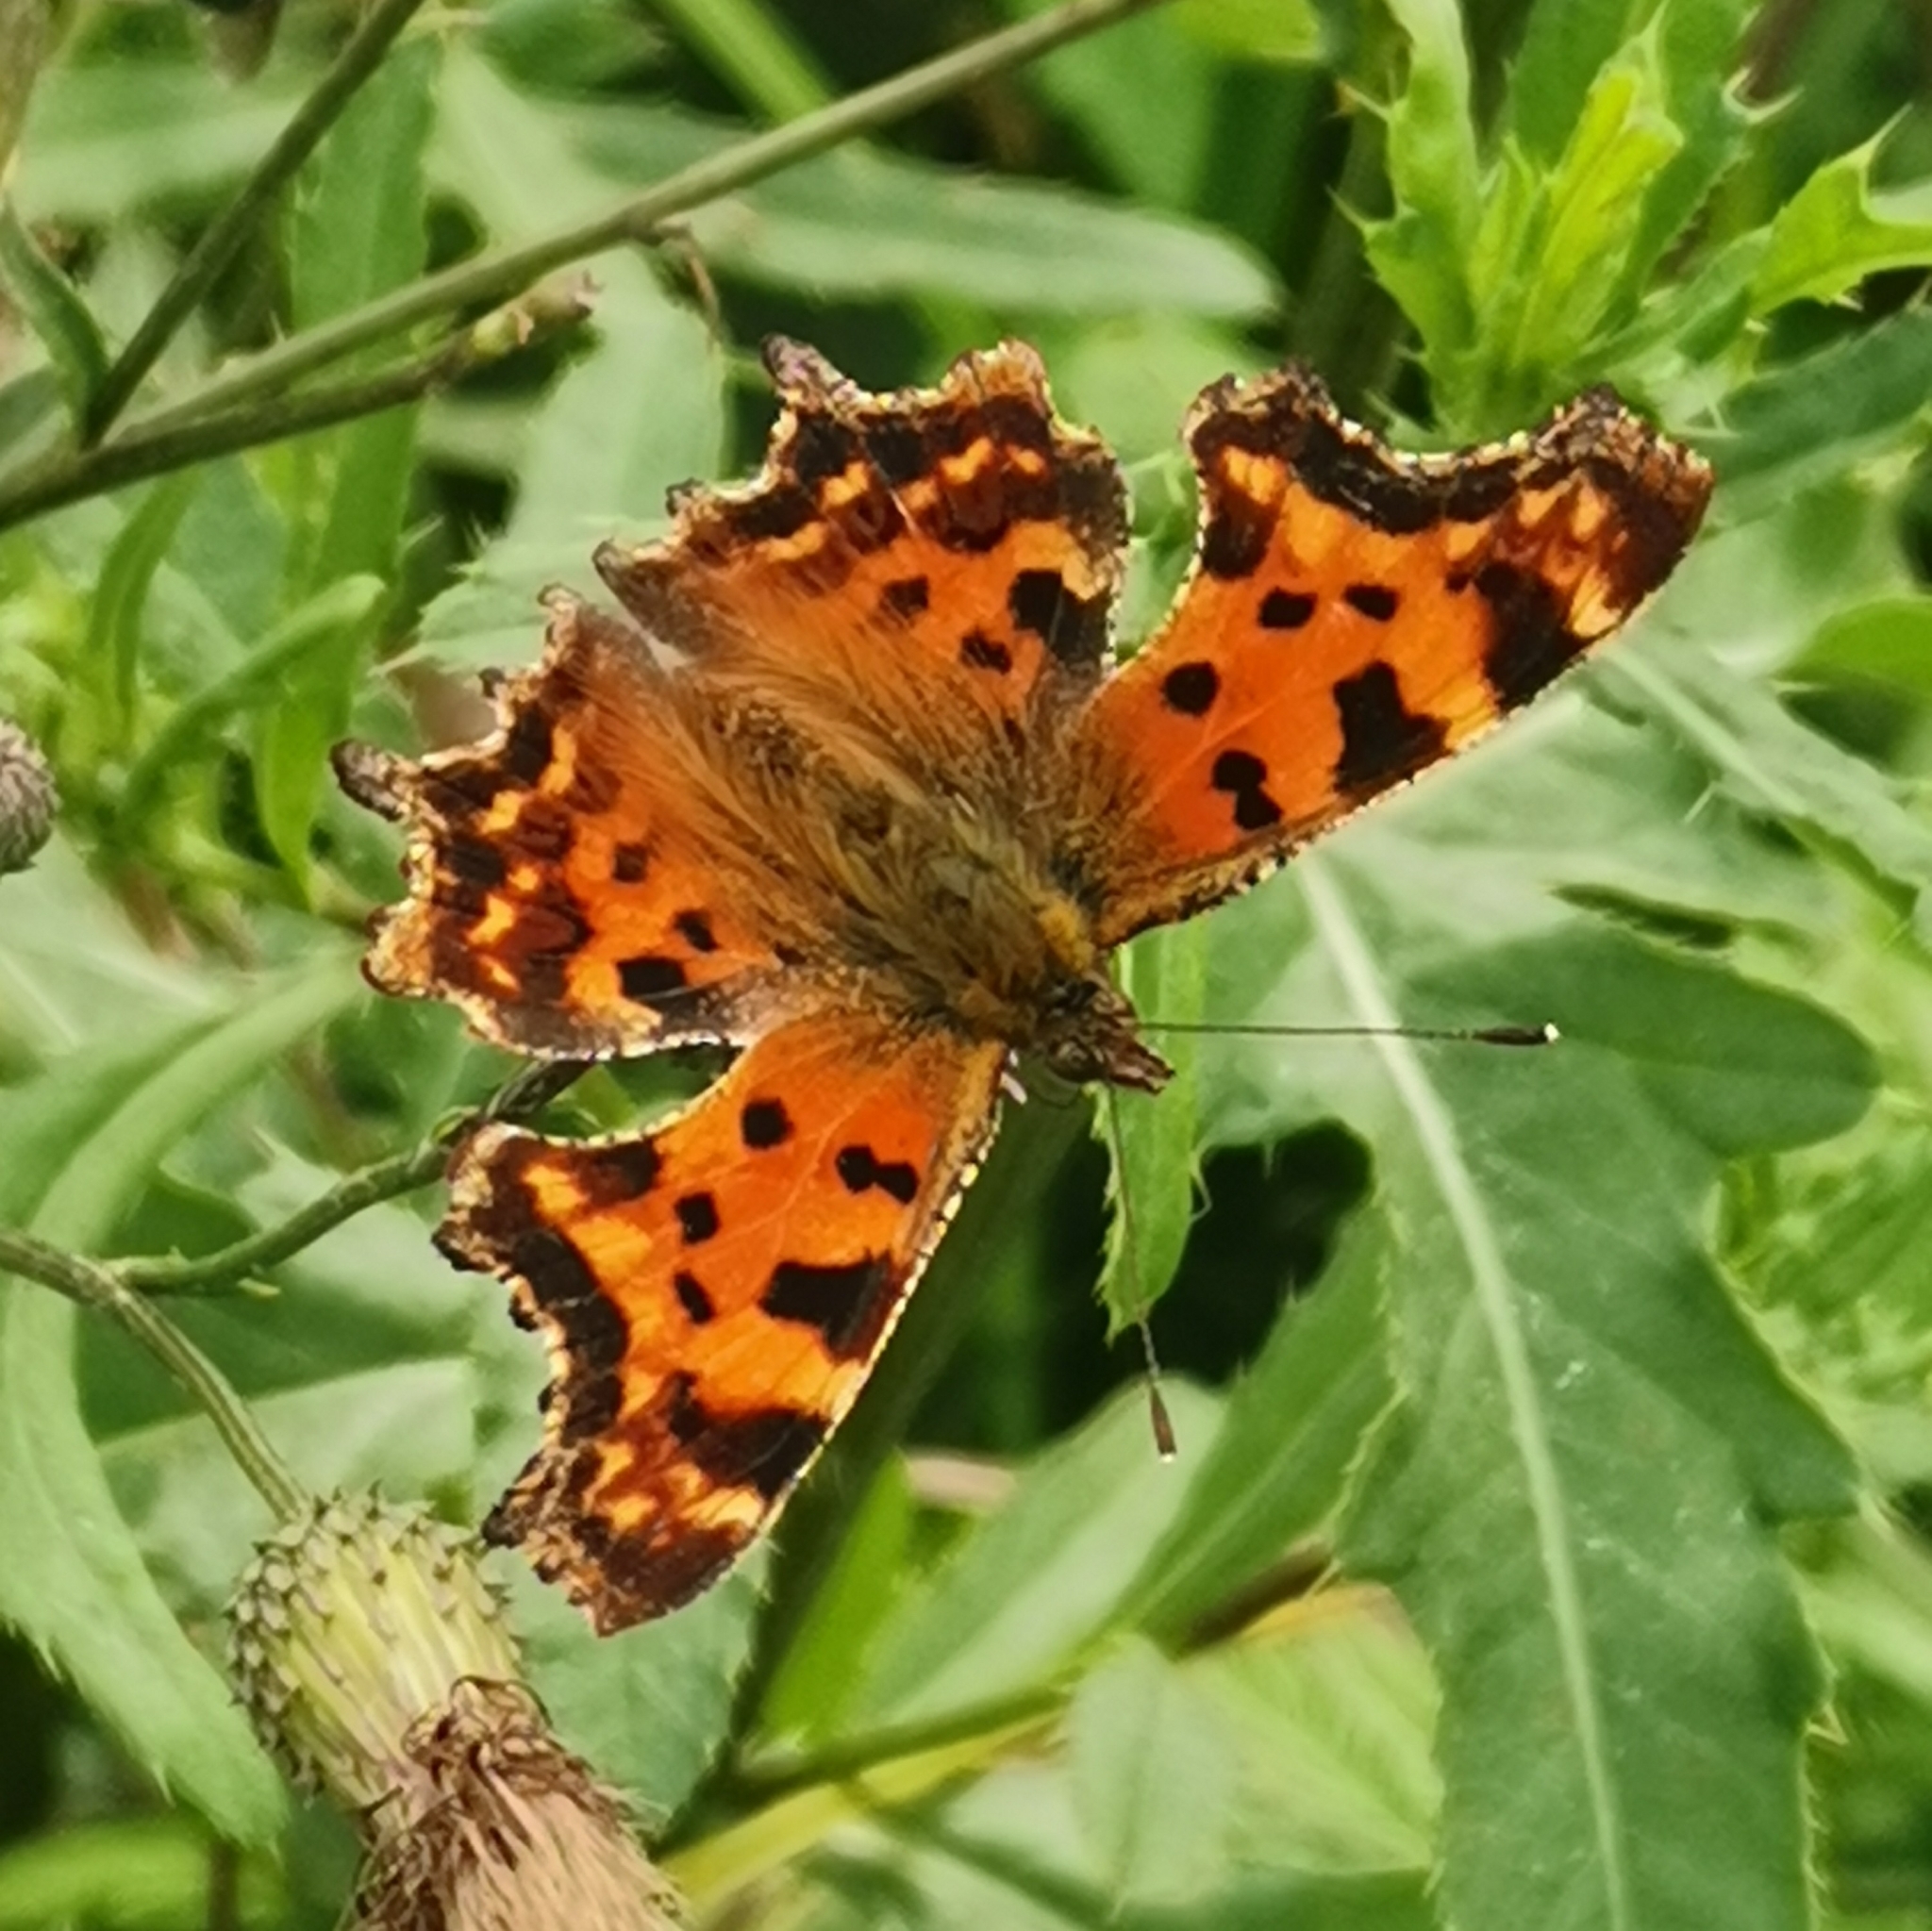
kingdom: Animalia
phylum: Arthropoda
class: Insecta
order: Lepidoptera
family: Nymphalidae
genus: Polygonia
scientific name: Polygonia c-album
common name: Comma
